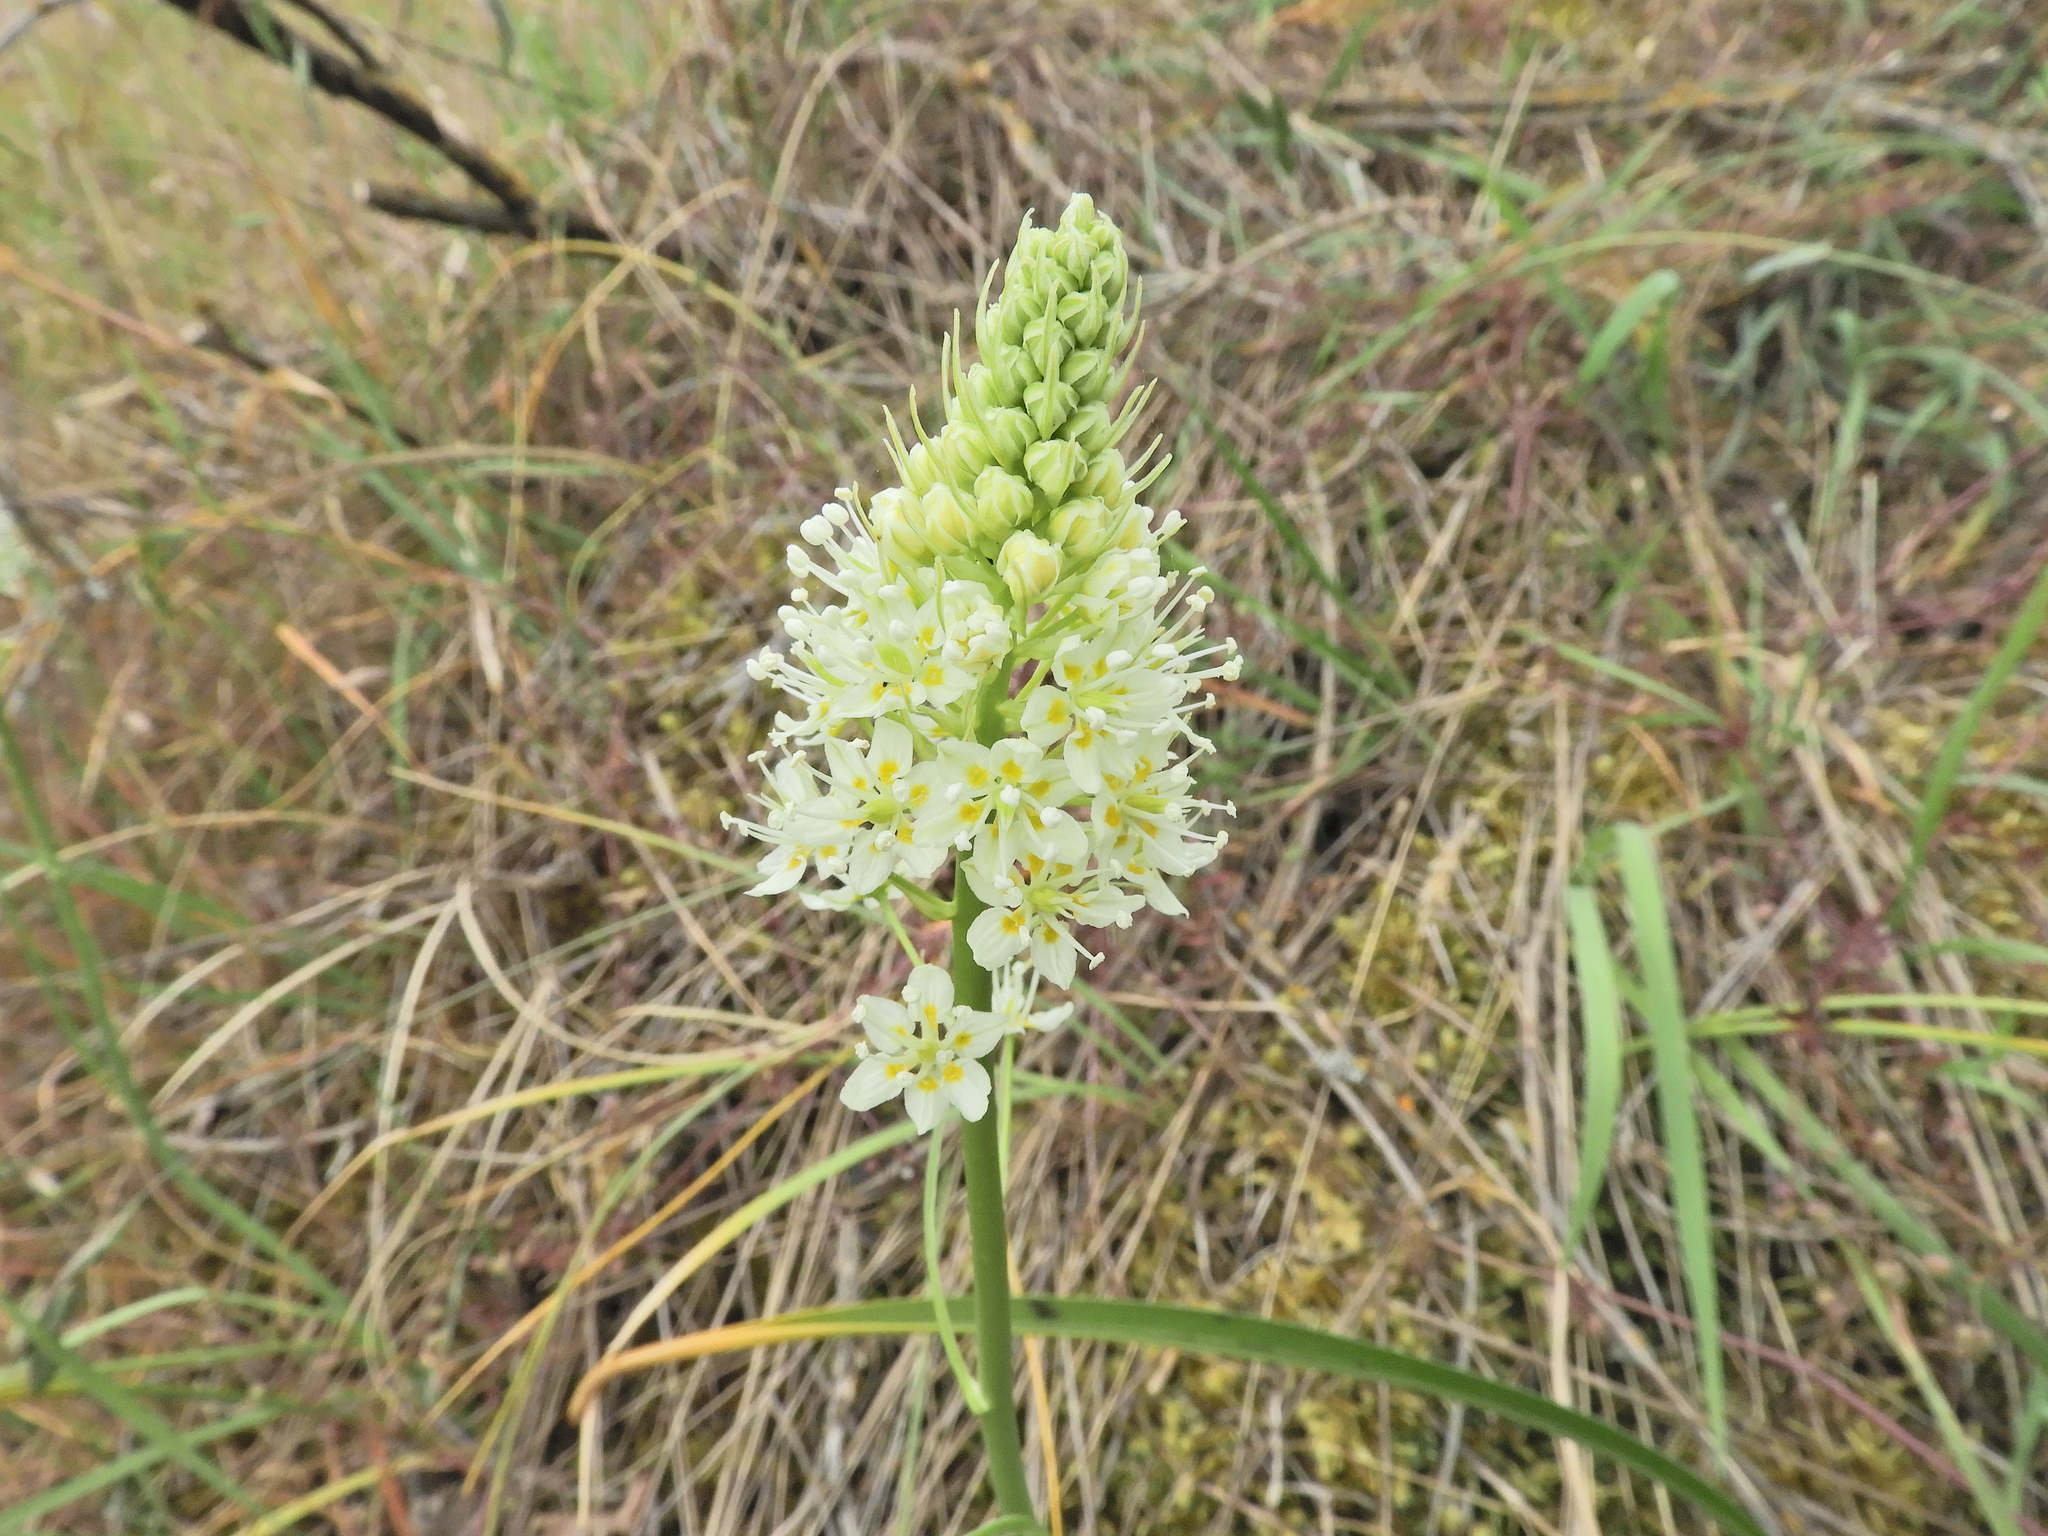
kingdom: Plantae
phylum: Tracheophyta
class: Liliopsida
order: Liliales
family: Melanthiaceae
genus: Toxicoscordion
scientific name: Toxicoscordion venenosum
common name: Meadow death camas
